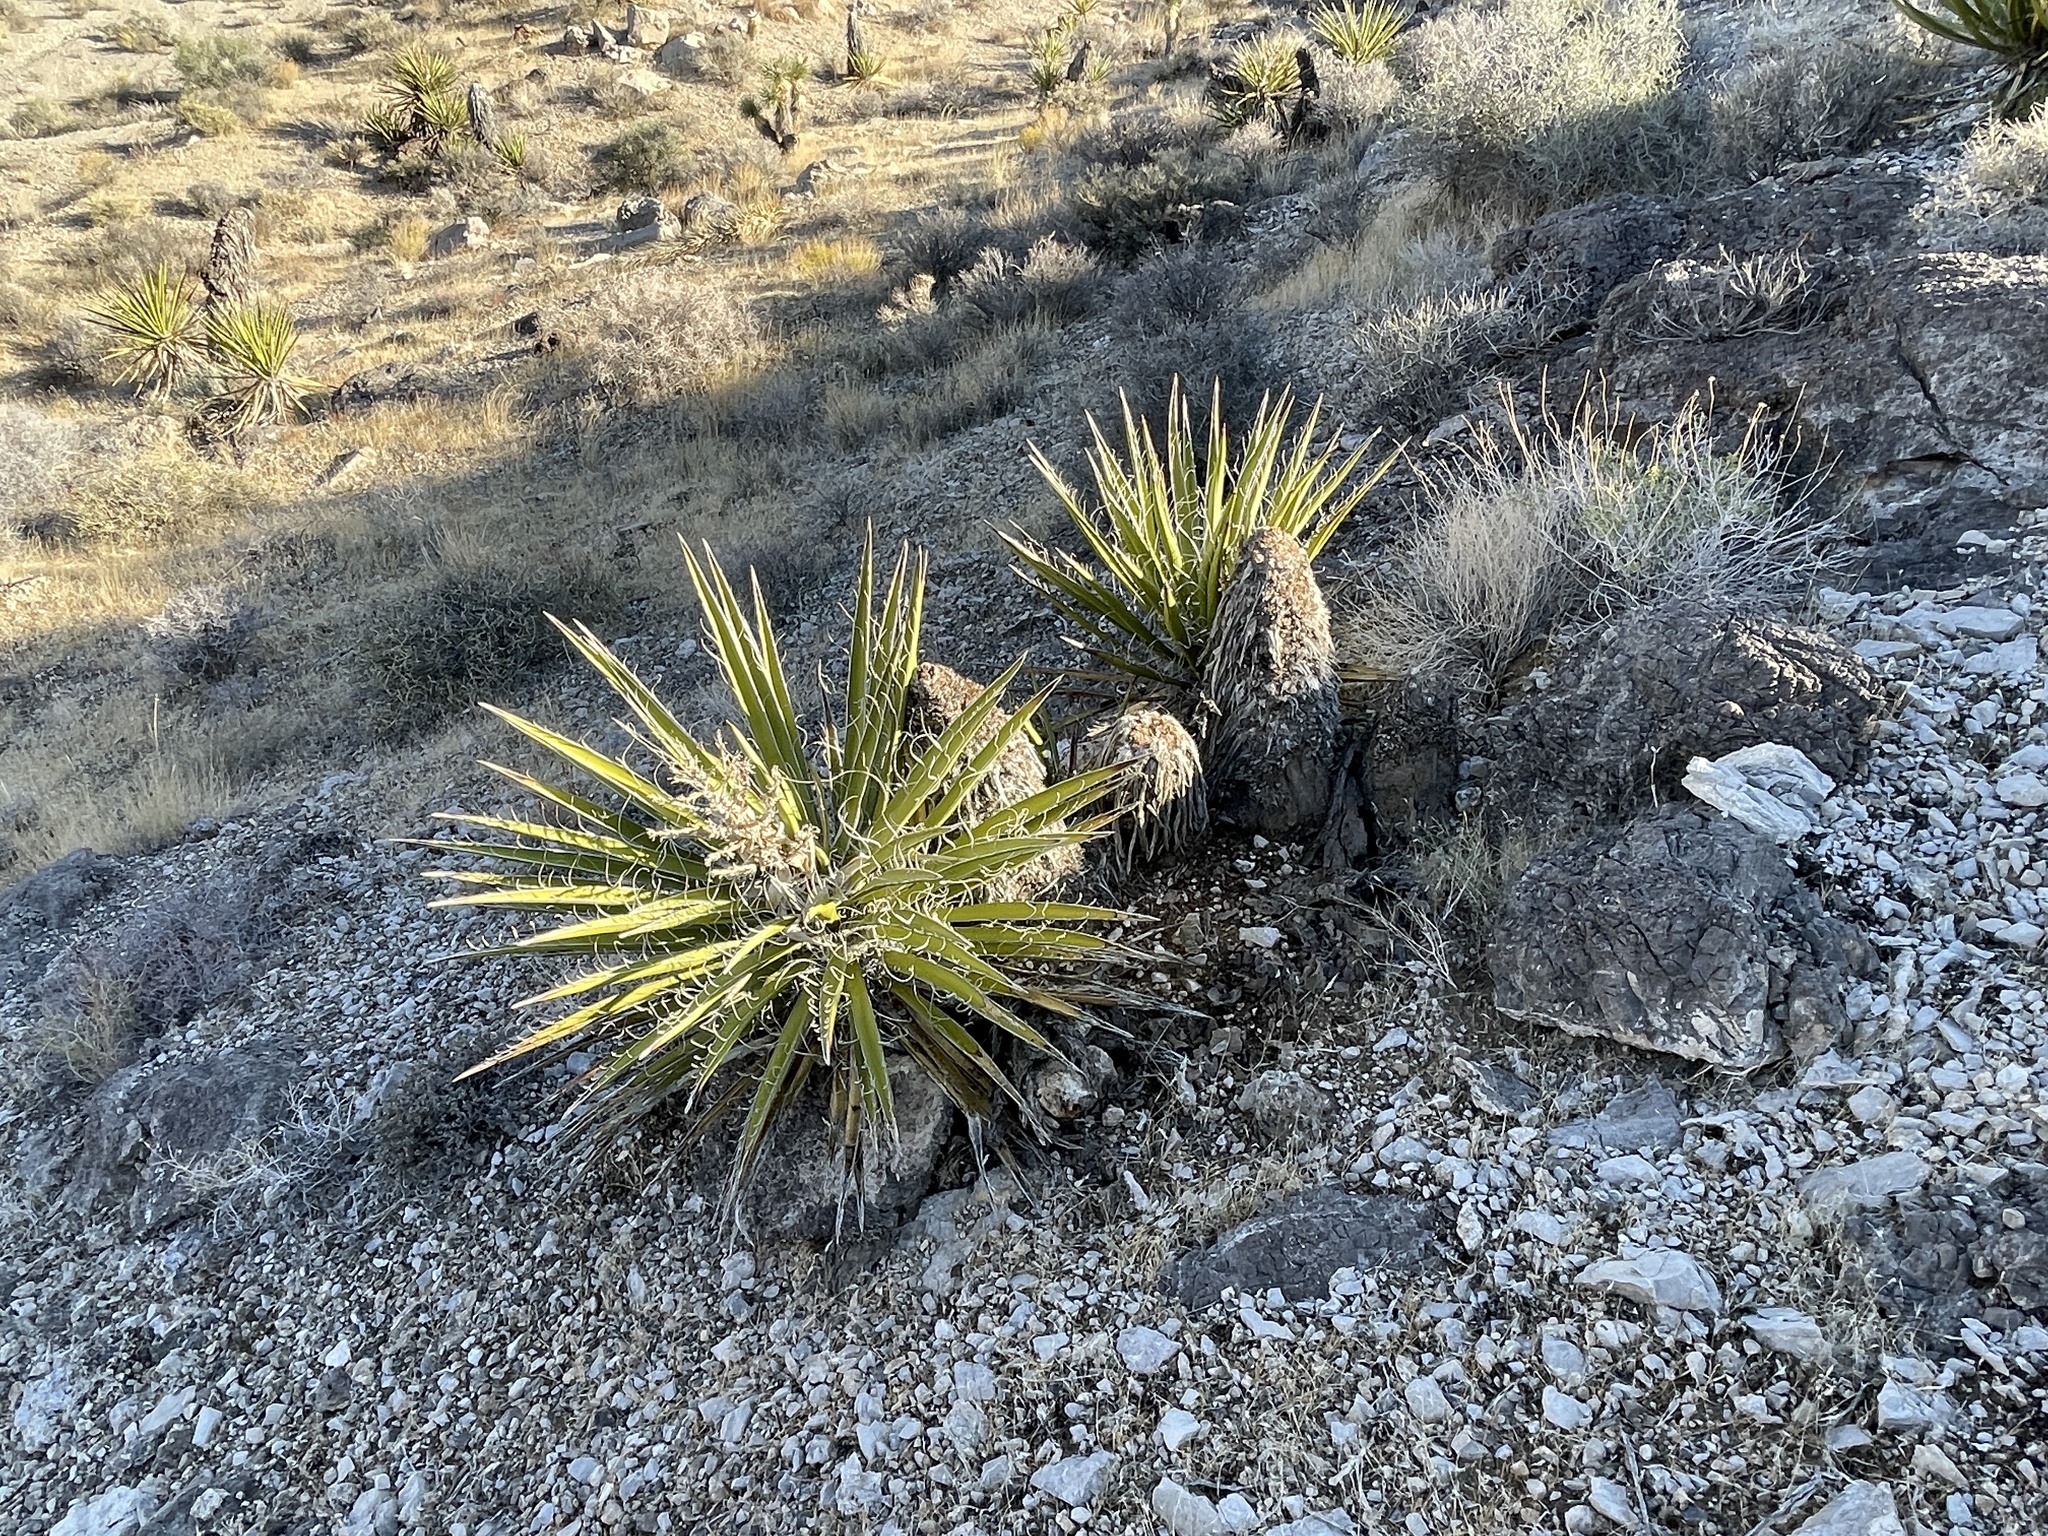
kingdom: Plantae
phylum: Tracheophyta
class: Liliopsida
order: Asparagales
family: Asparagaceae
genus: Yucca
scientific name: Yucca schidigera
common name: Mojave yucca
